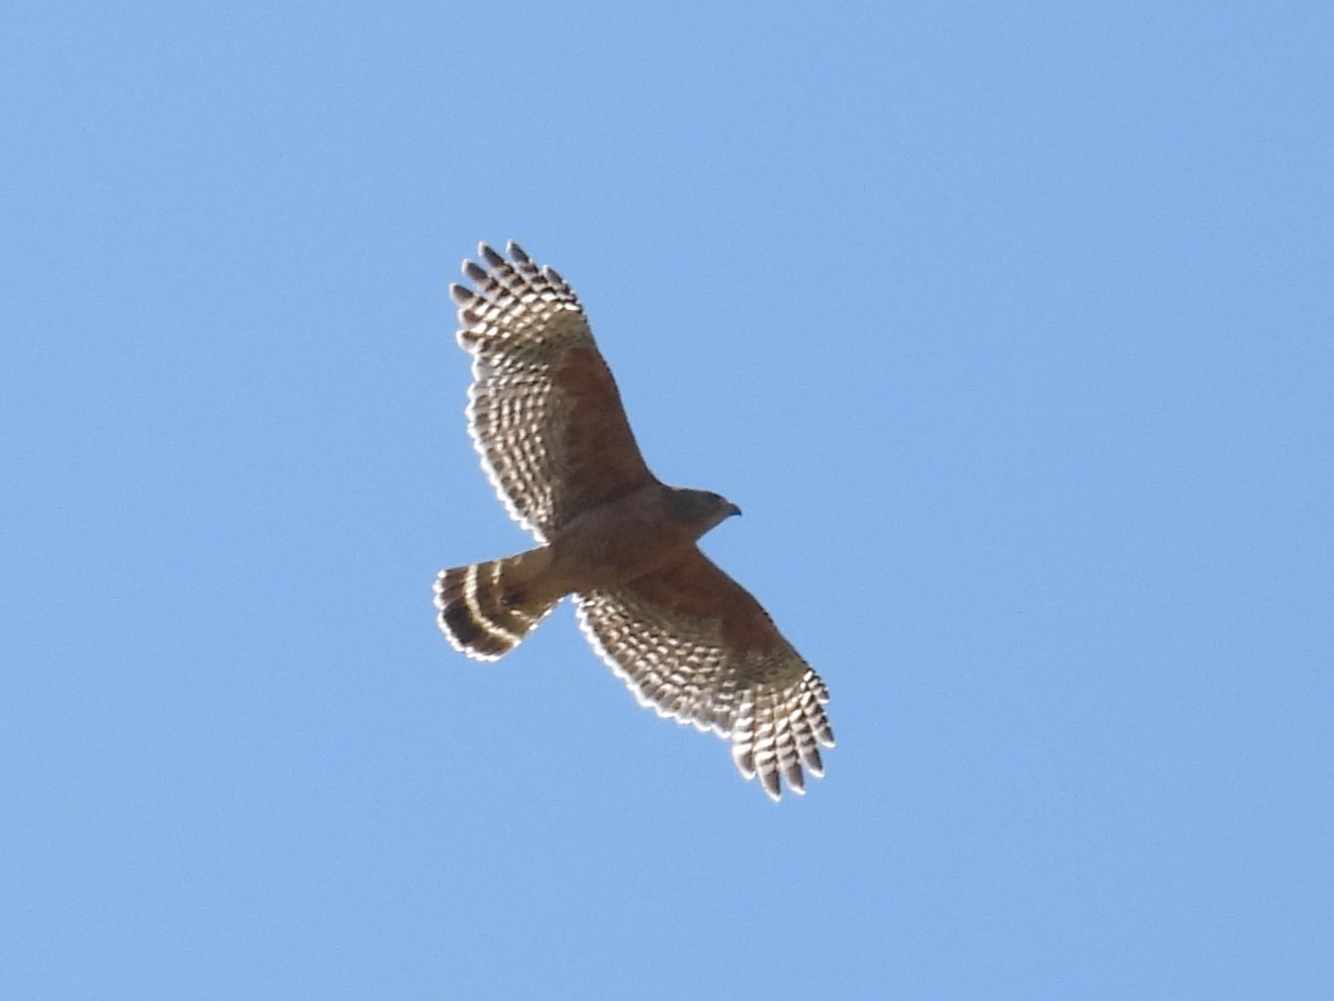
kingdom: Animalia
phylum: Chordata
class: Aves
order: Accipitriformes
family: Accipitridae
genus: Buteo
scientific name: Buteo lineatus
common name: Red-shouldered hawk
